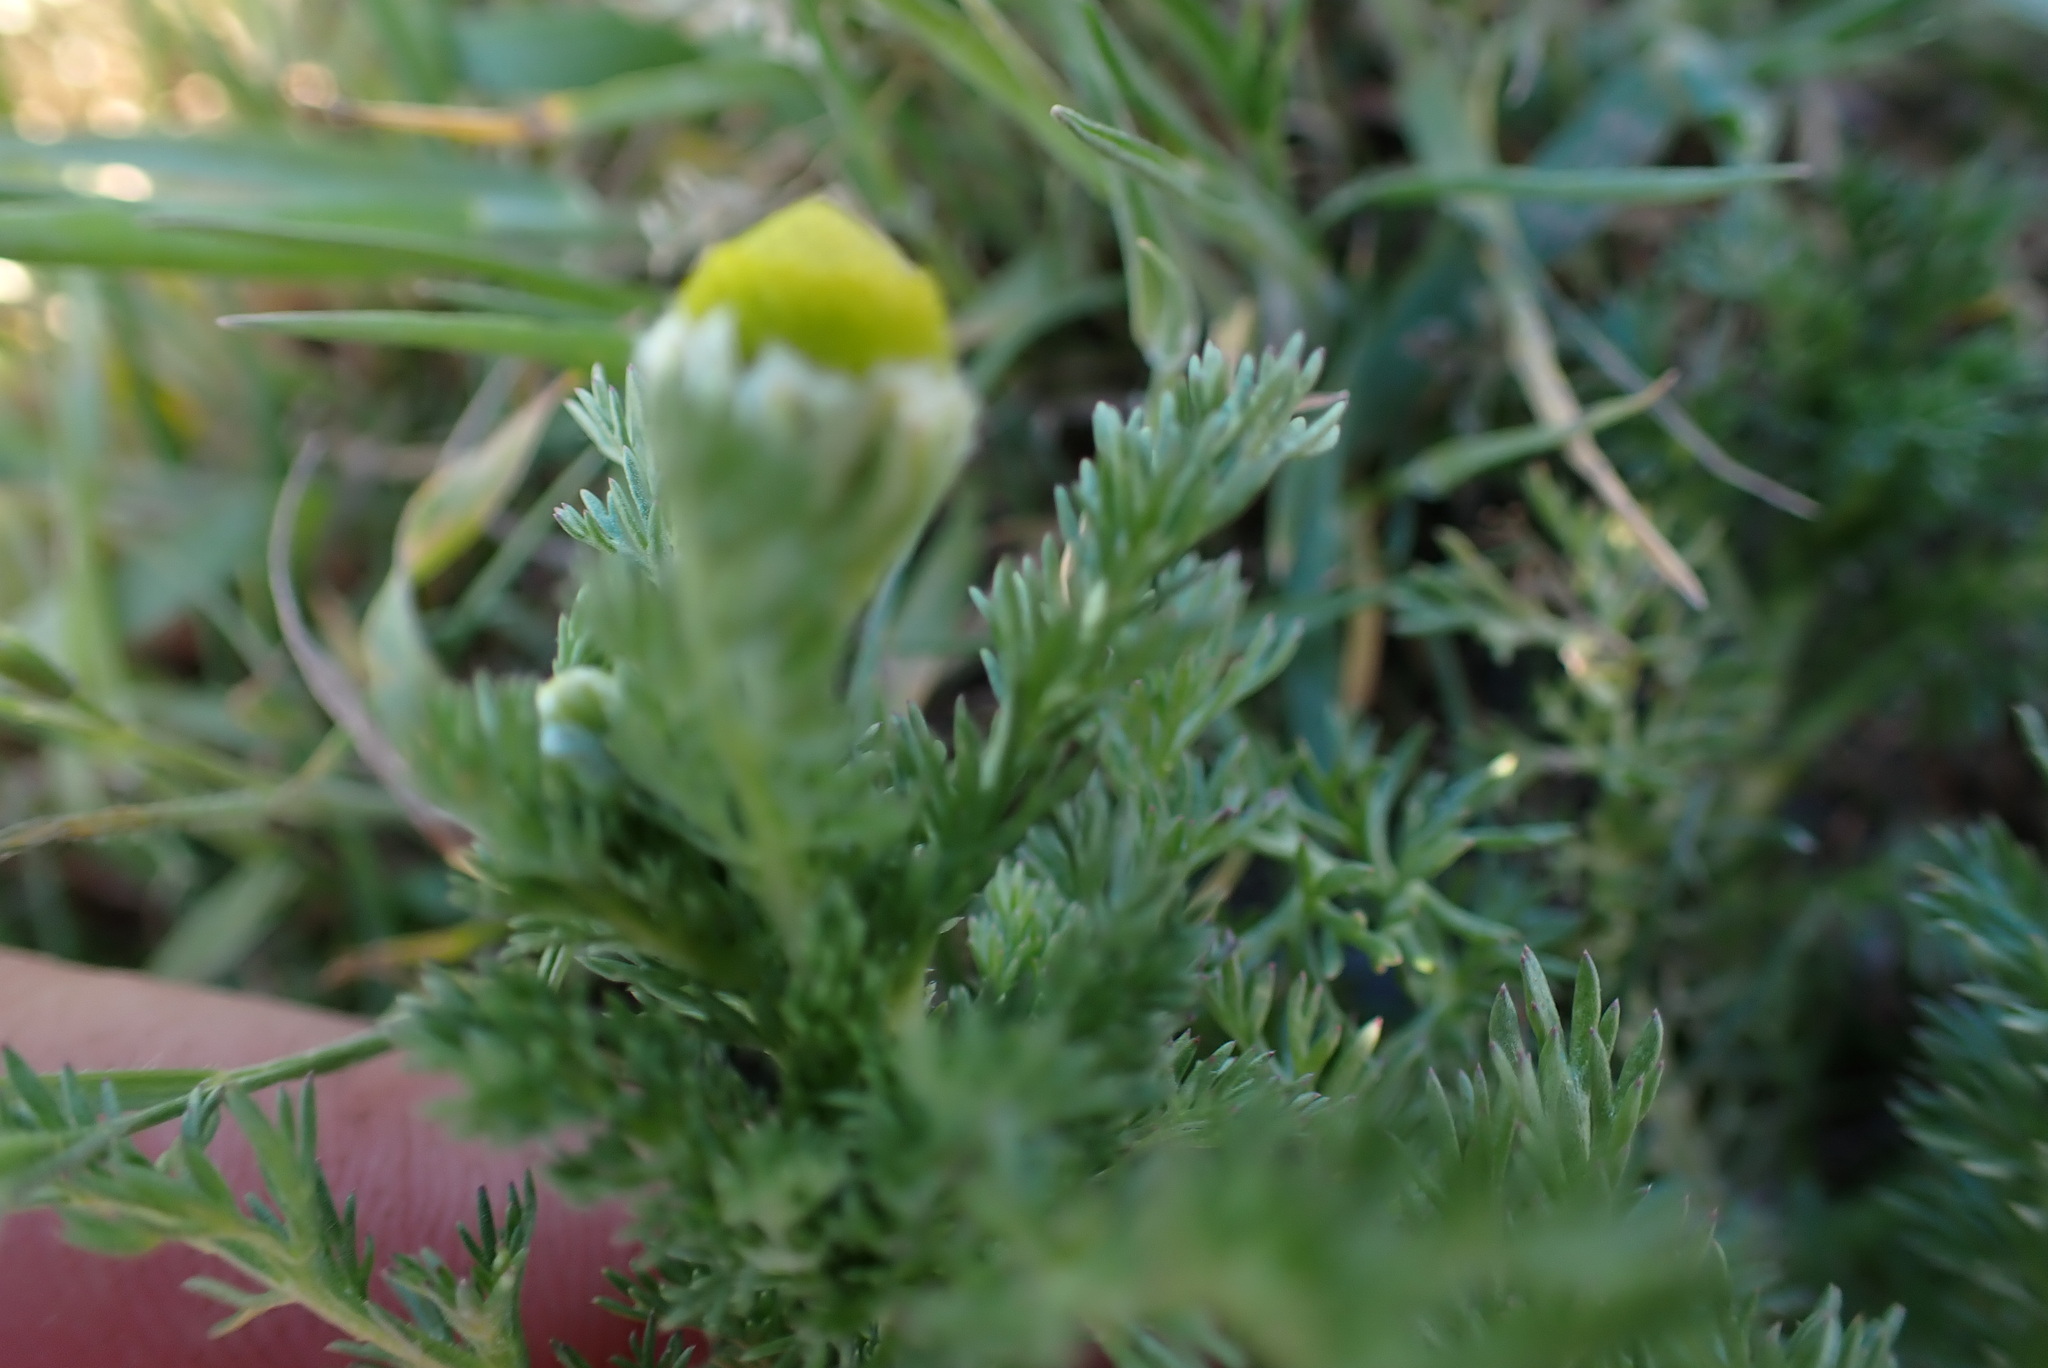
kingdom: Plantae
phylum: Tracheophyta
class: Magnoliopsida
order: Asterales
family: Asteraceae
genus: Matricaria
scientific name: Matricaria discoidea
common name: Disc mayweed
